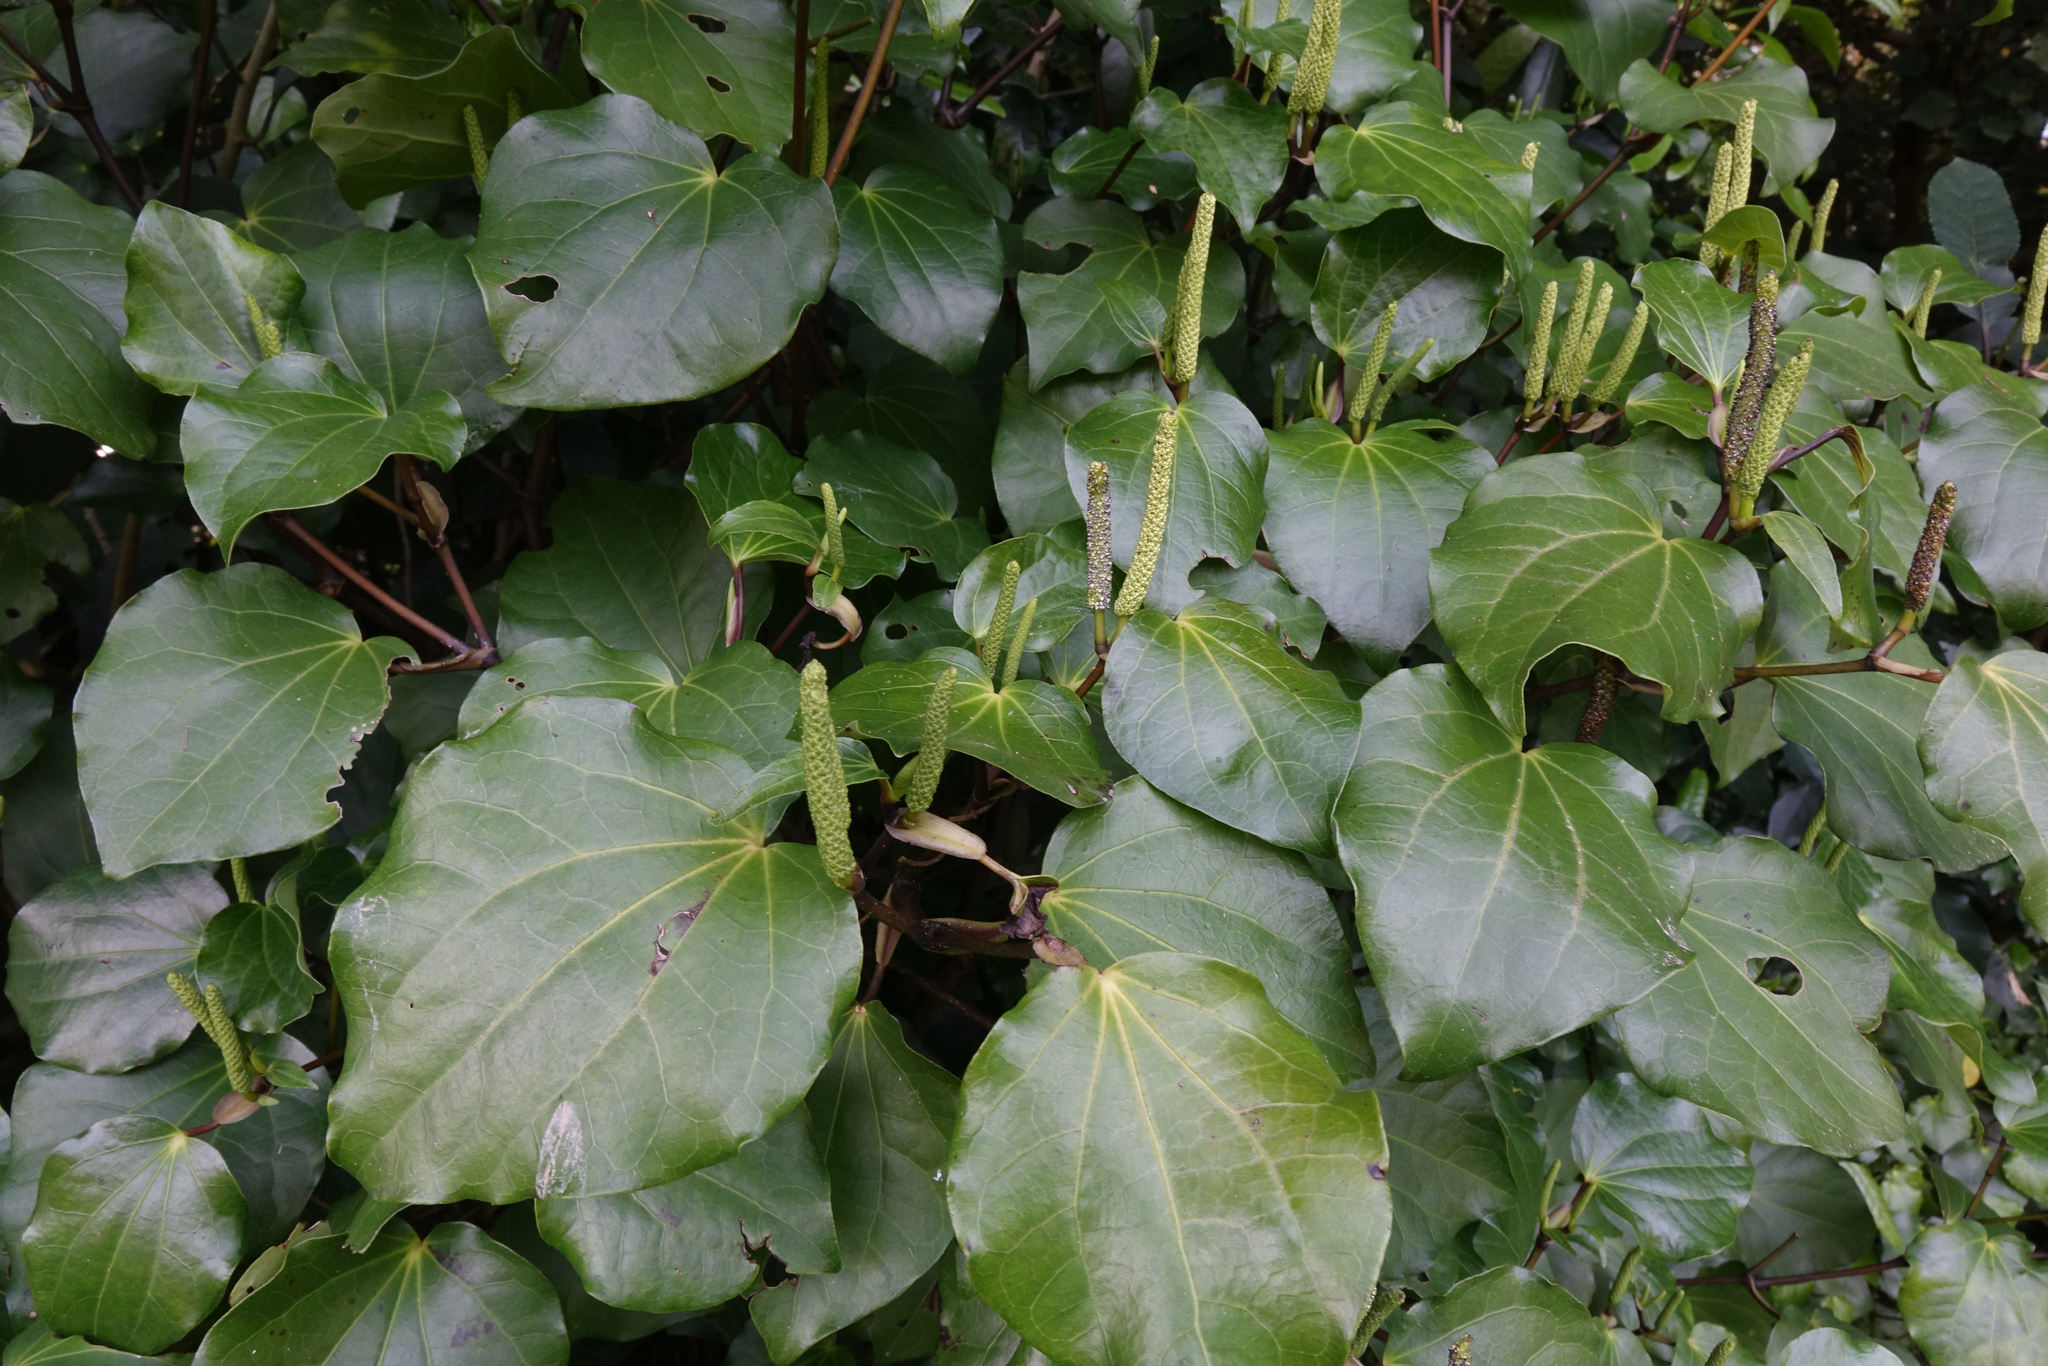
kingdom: Plantae
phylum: Tracheophyta
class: Magnoliopsida
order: Piperales
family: Piperaceae
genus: Macropiper
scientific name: Macropiper excelsum
